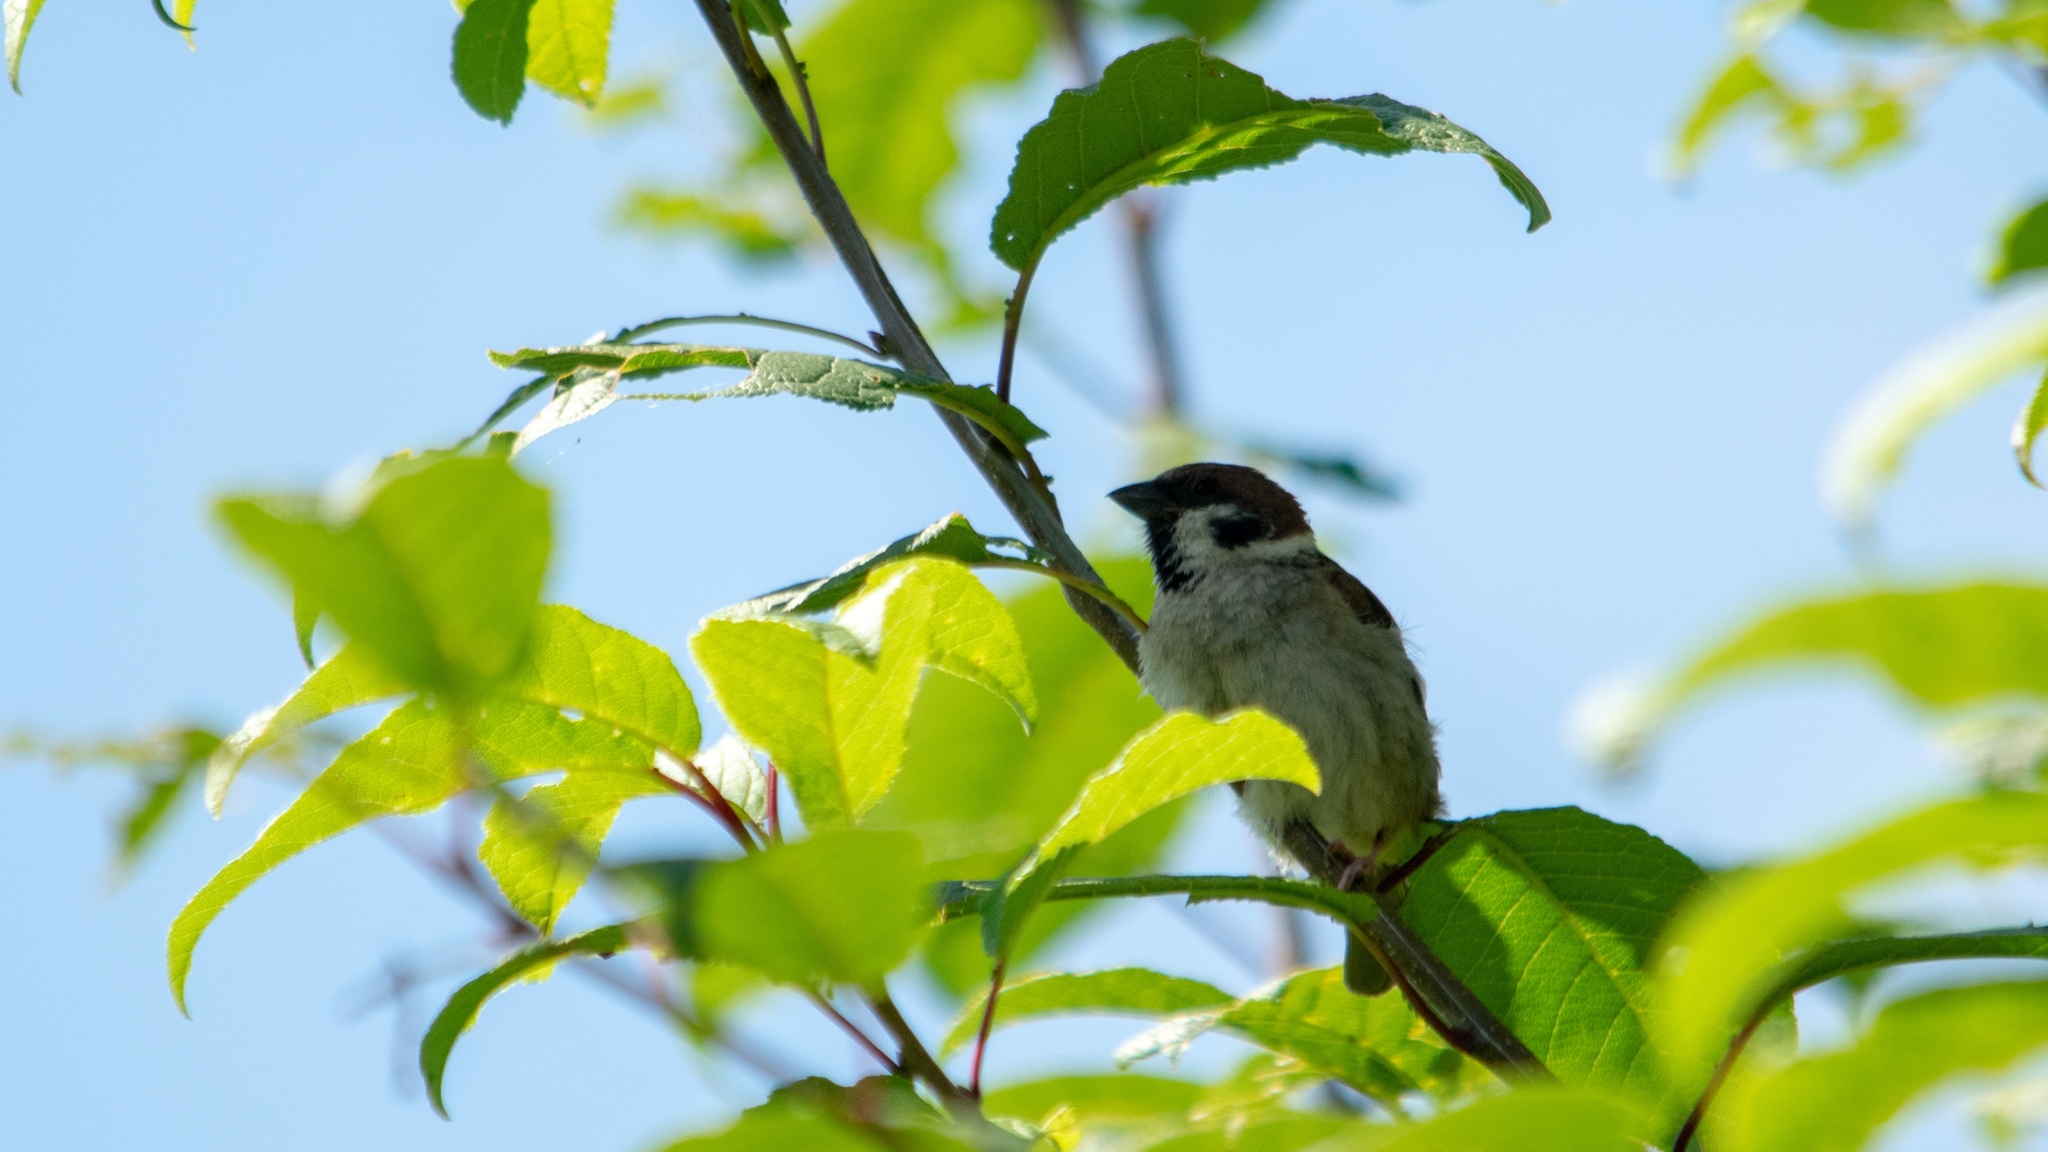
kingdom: Animalia
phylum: Chordata
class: Aves
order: Passeriformes
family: Passeridae
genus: Passer
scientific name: Passer montanus
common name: Eurasian tree sparrow
